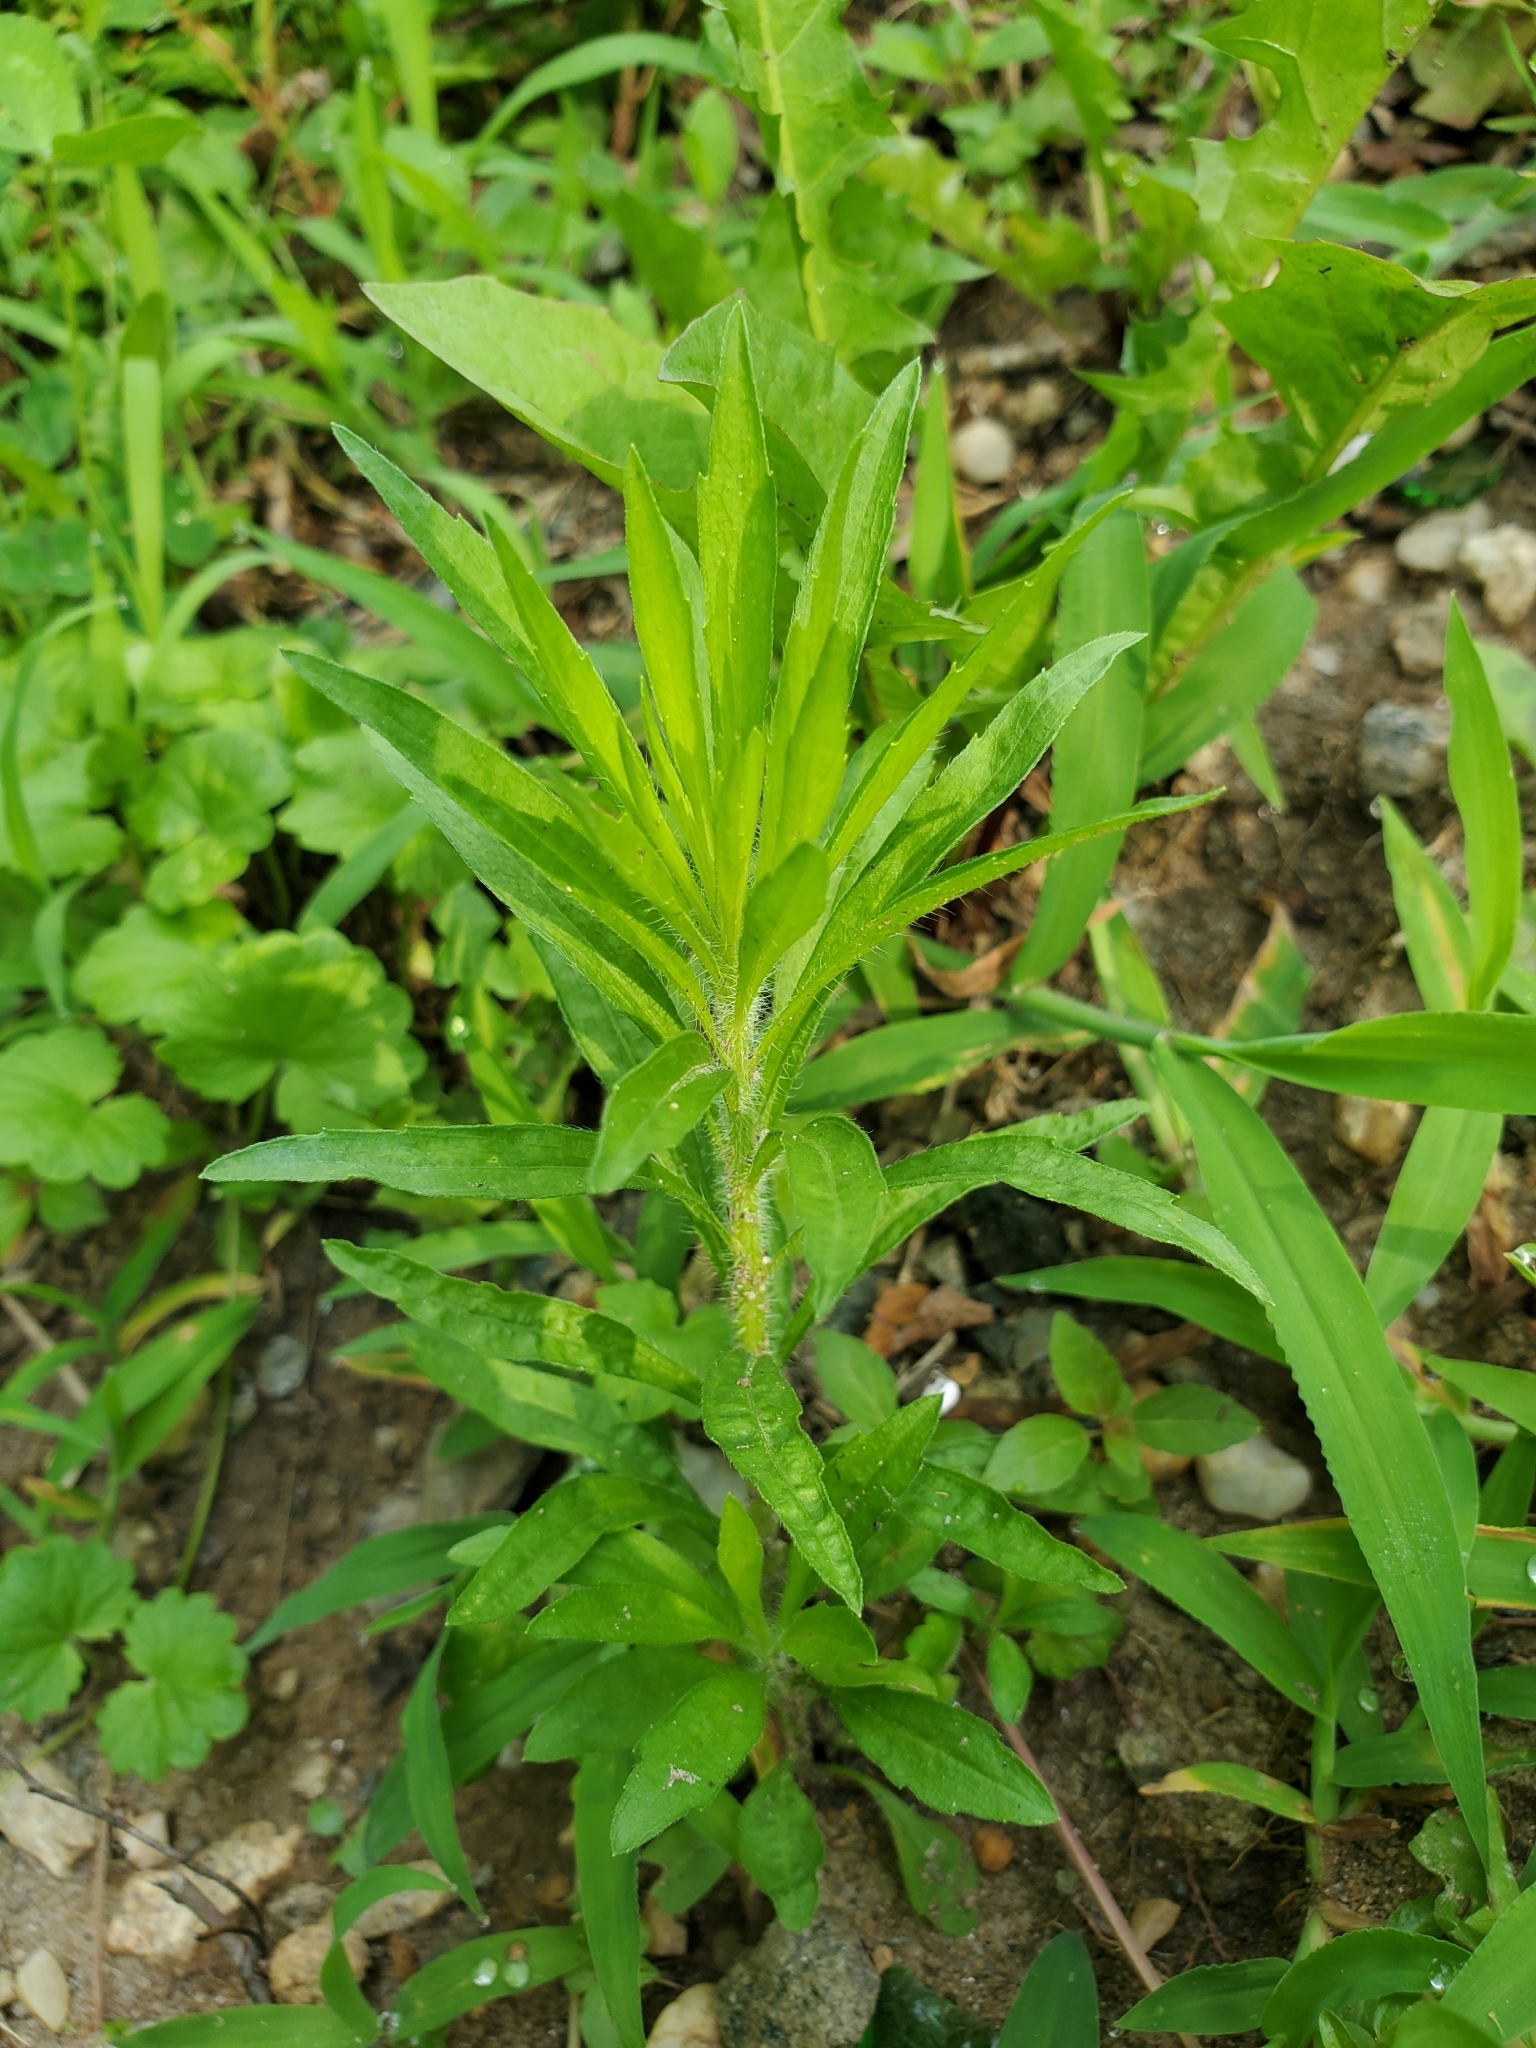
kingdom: Plantae
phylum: Tracheophyta
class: Magnoliopsida
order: Asterales
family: Asteraceae
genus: Erigeron
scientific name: Erigeron canadensis
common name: Canadian fleabane
